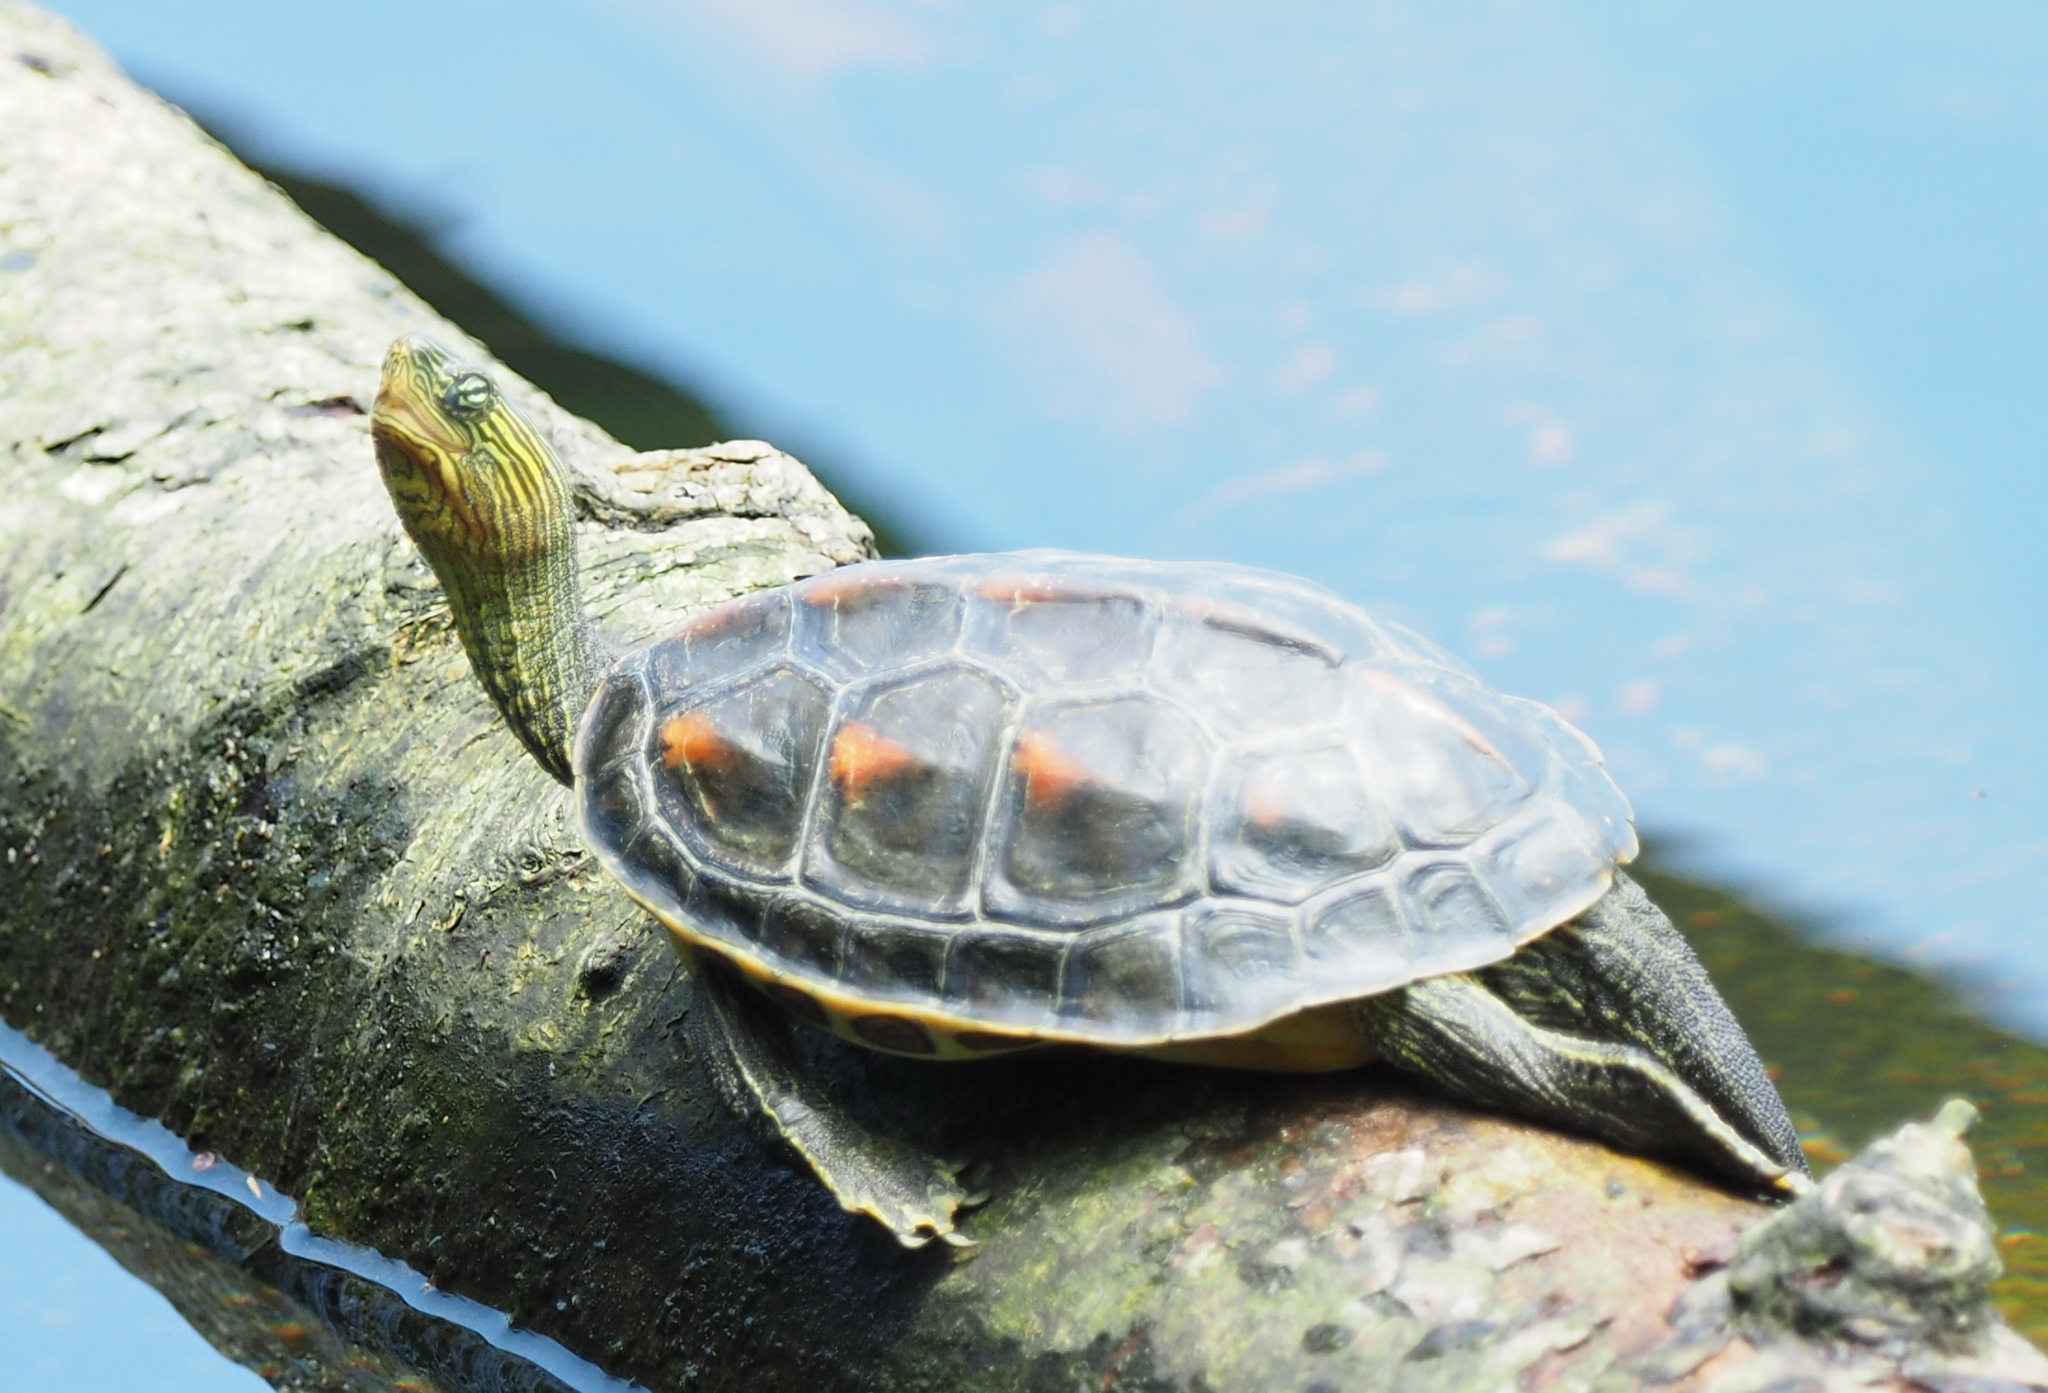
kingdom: Animalia
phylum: Chordata
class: Testudines
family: Geoemydidae
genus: Mauremys
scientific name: Mauremys sinensis
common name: Chinese stripe-necked turtle
